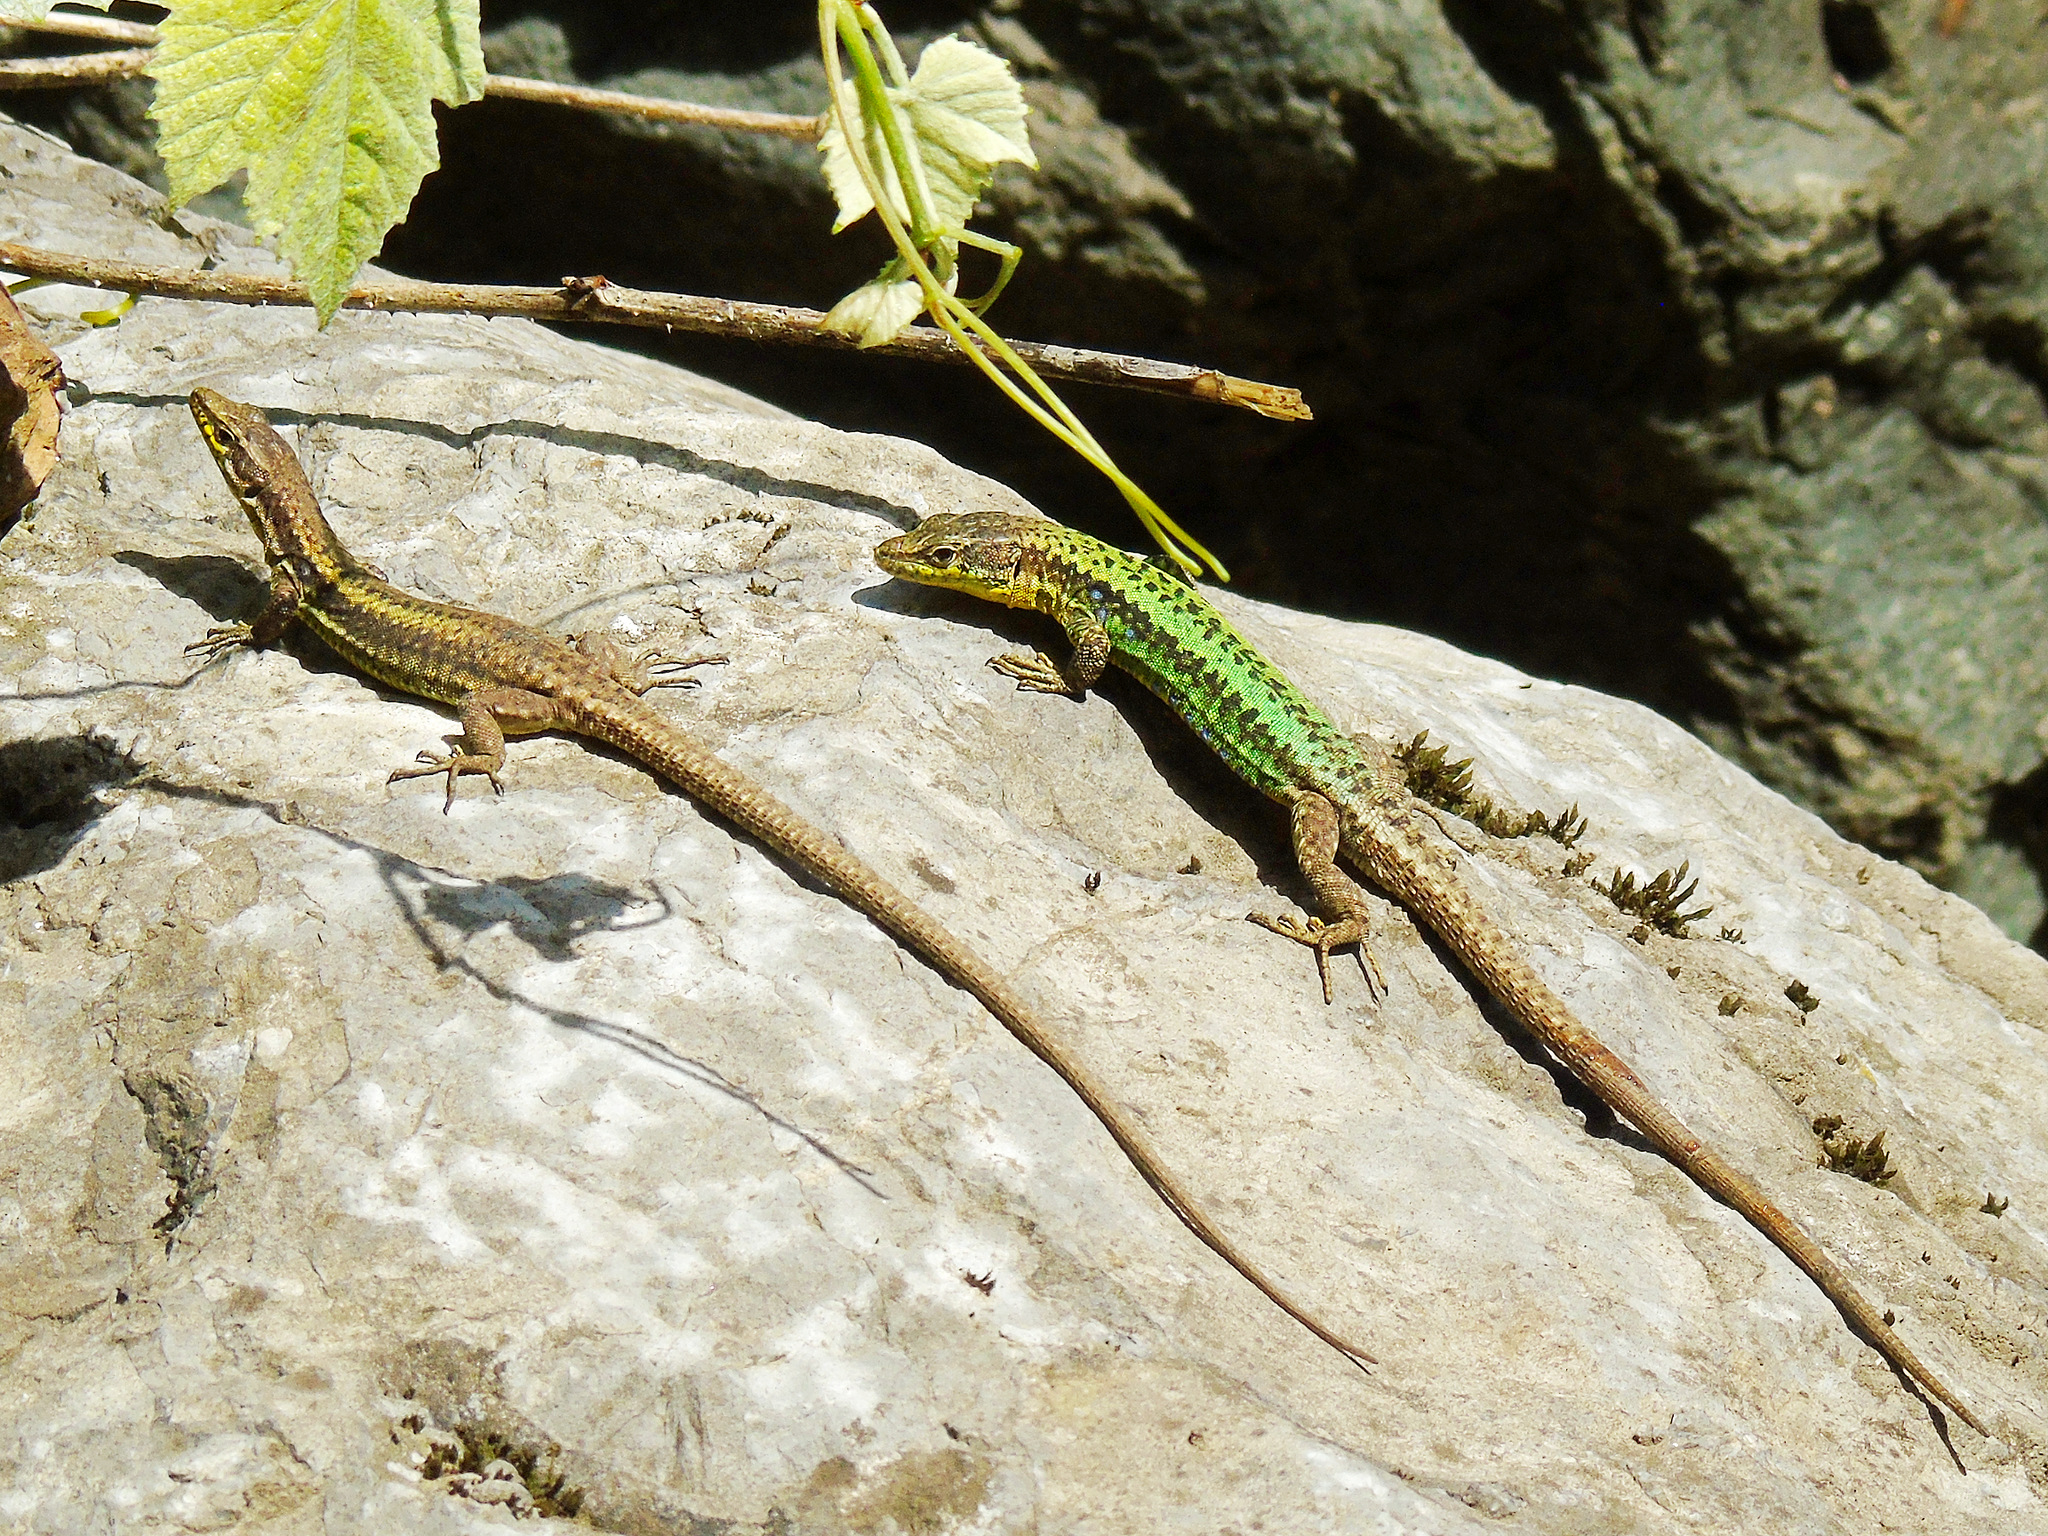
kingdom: Animalia
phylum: Chordata
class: Squamata
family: Lacertidae
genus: Darevskia
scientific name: Darevskia rudis
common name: Spiny-tailed lizard
